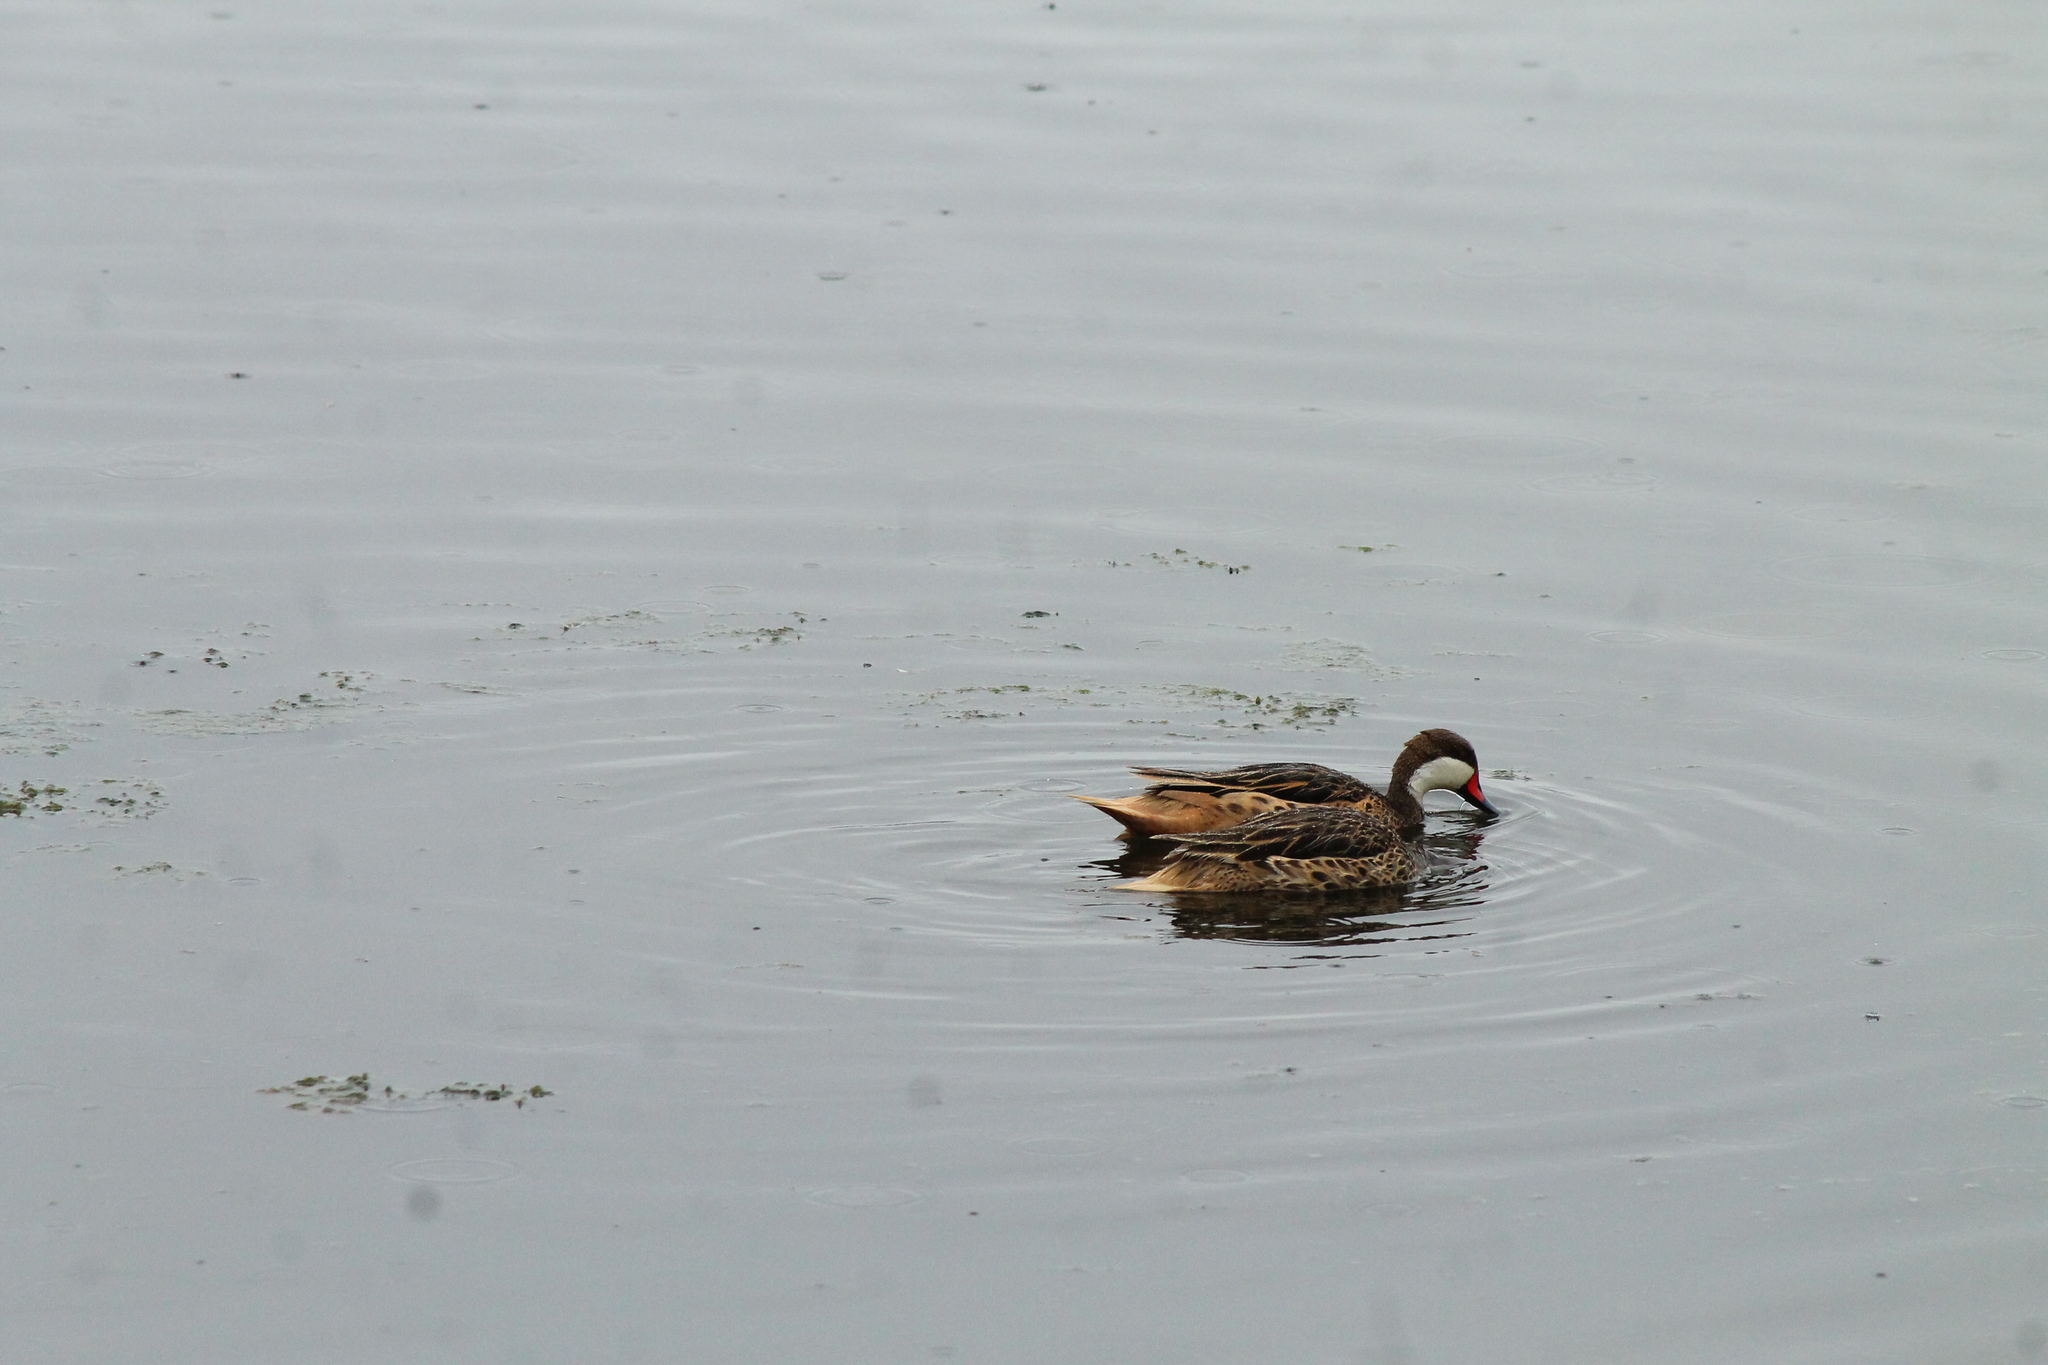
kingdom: Animalia
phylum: Chordata
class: Aves
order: Anseriformes
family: Anatidae
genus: Anas
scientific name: Anas bahamensis
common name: White-cheeked pintail
